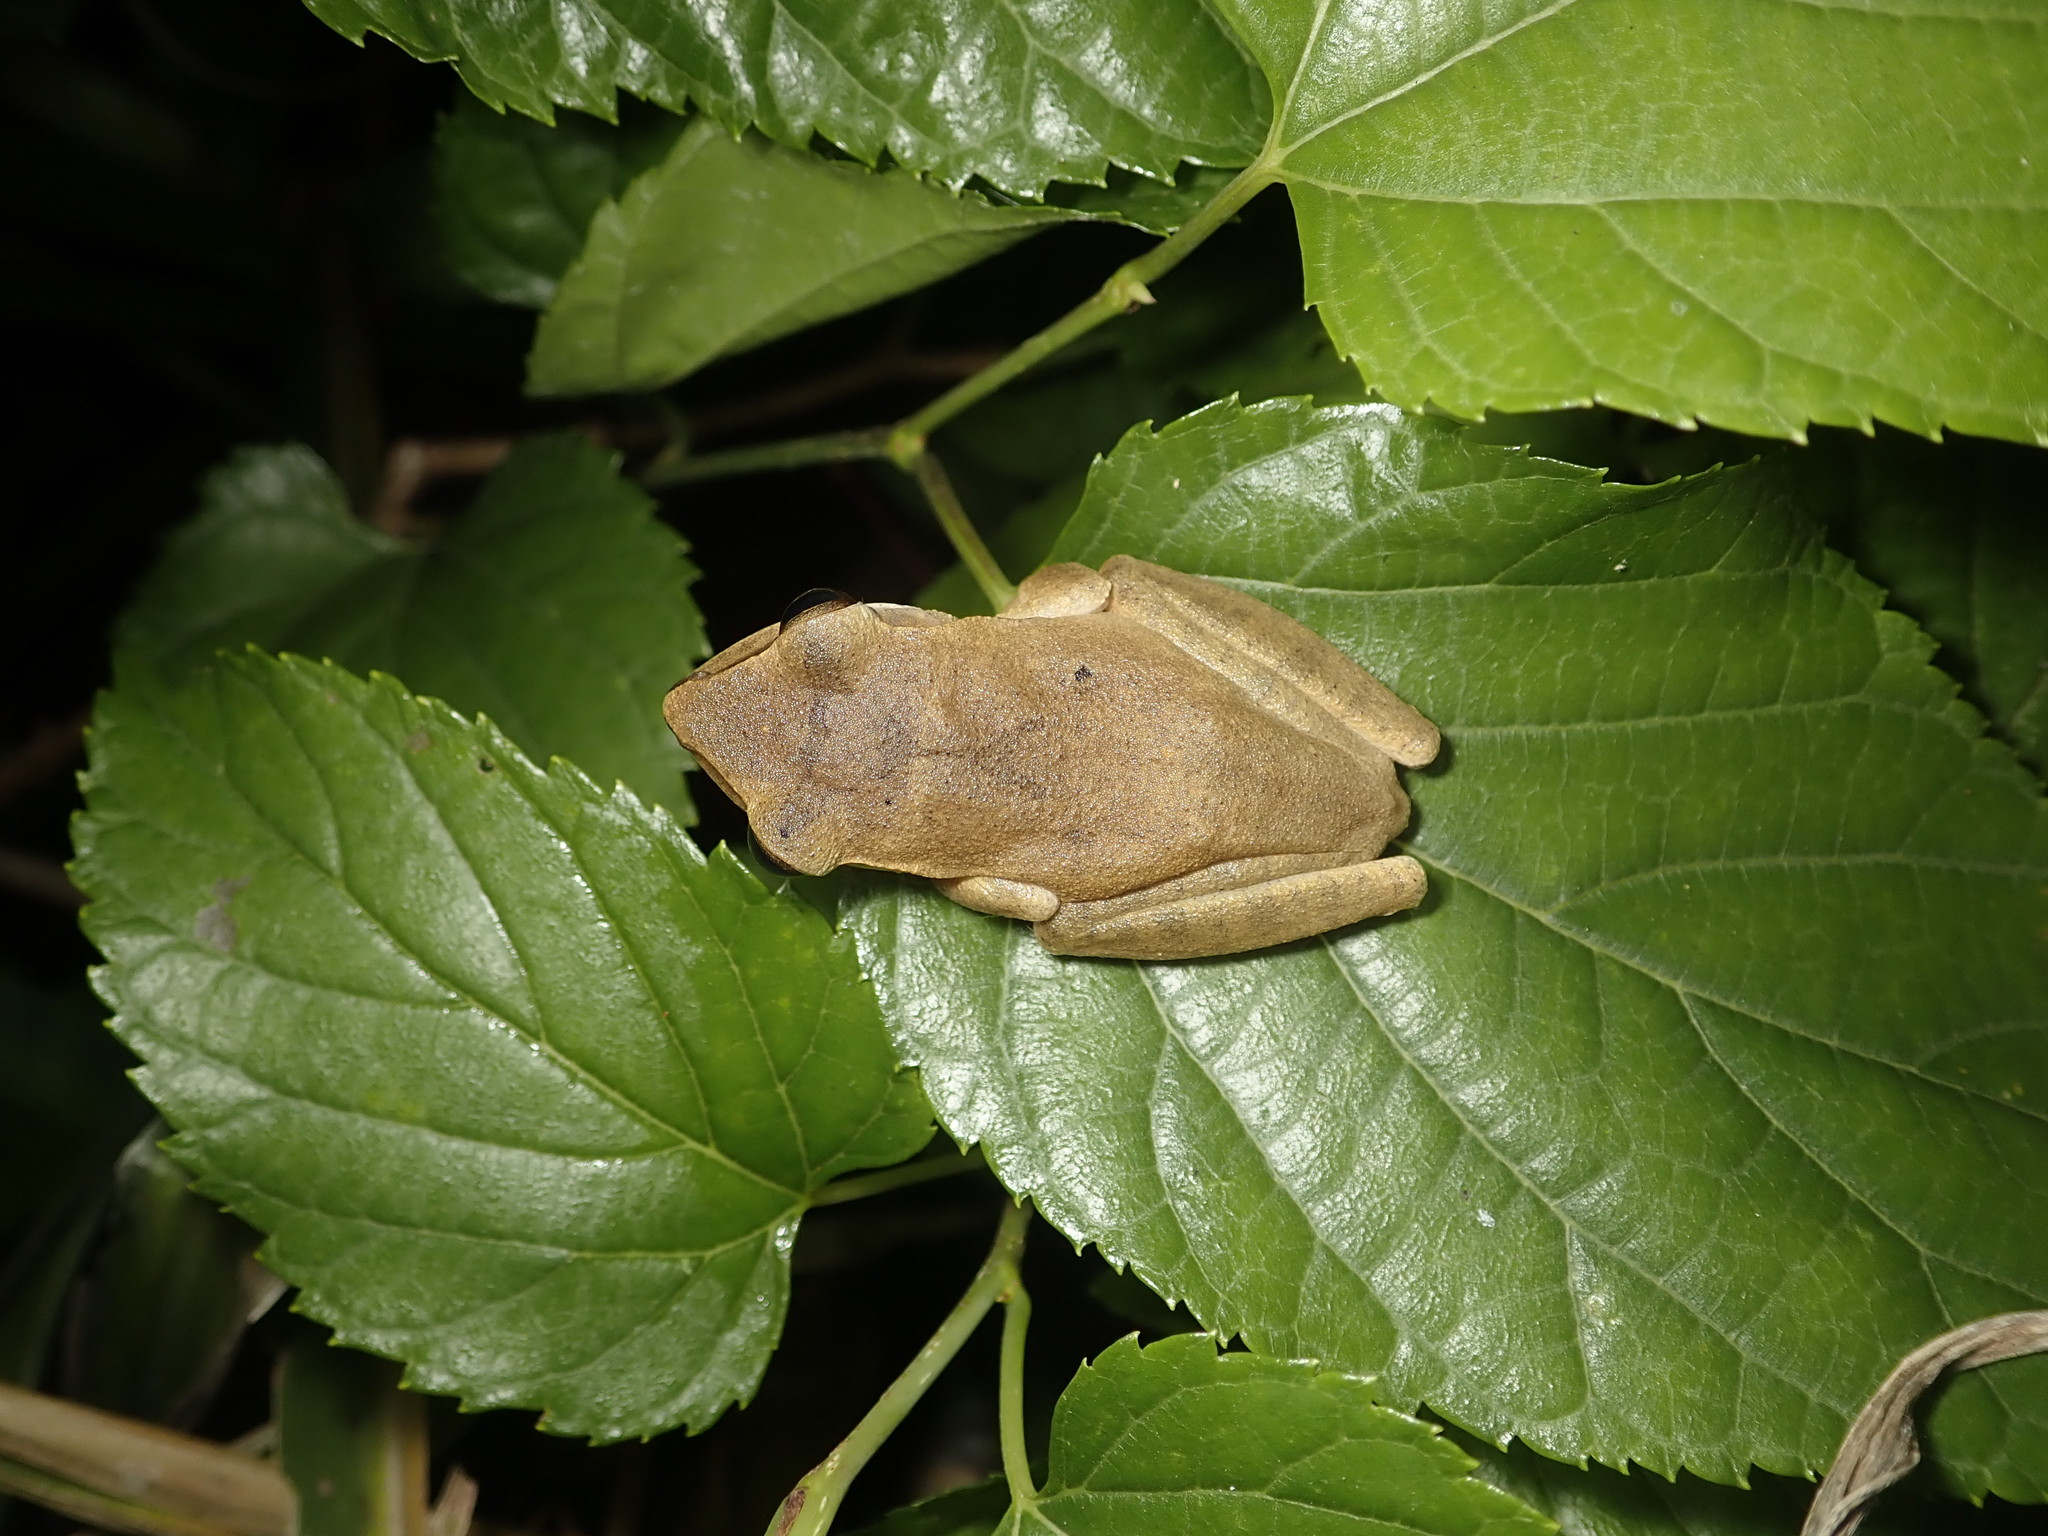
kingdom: Animalia
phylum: Chordata
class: Amphibia
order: Anura
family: Rhacophoridae
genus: Polypedates
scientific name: Polypedates megacephalus
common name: Hong kong whipping frog
